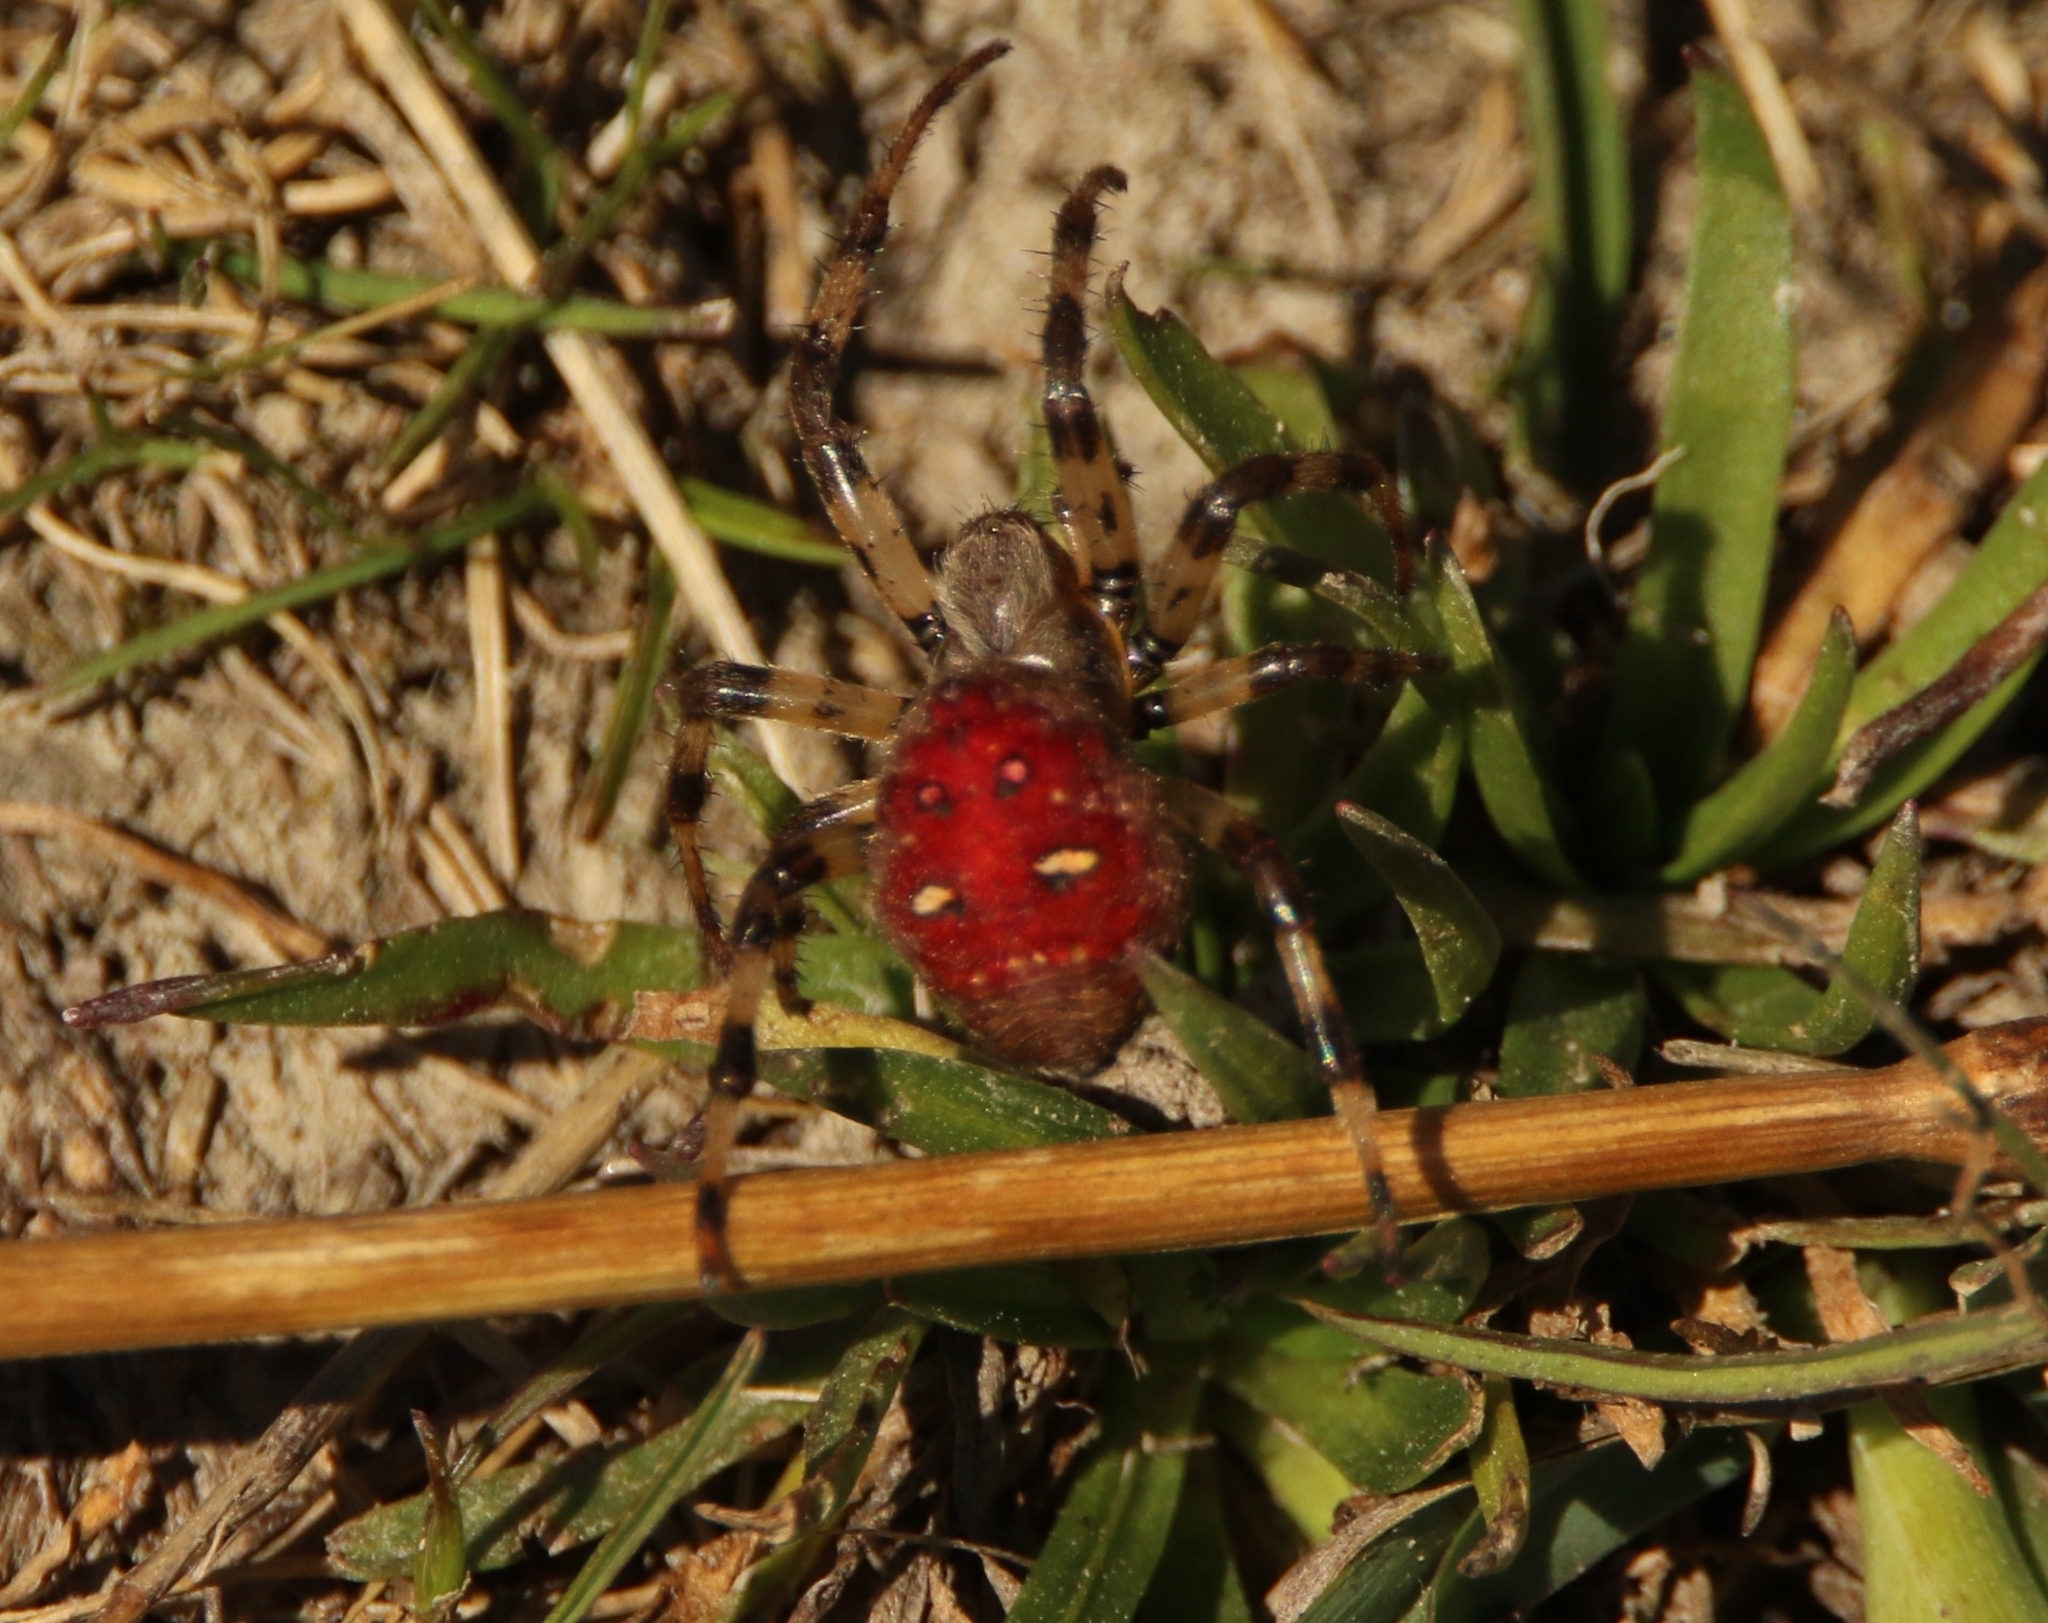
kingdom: Animalia
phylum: Arthropoda
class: Arachnida
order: Araneae
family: Araneidae
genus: Araneus
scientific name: Araneus quadratus
